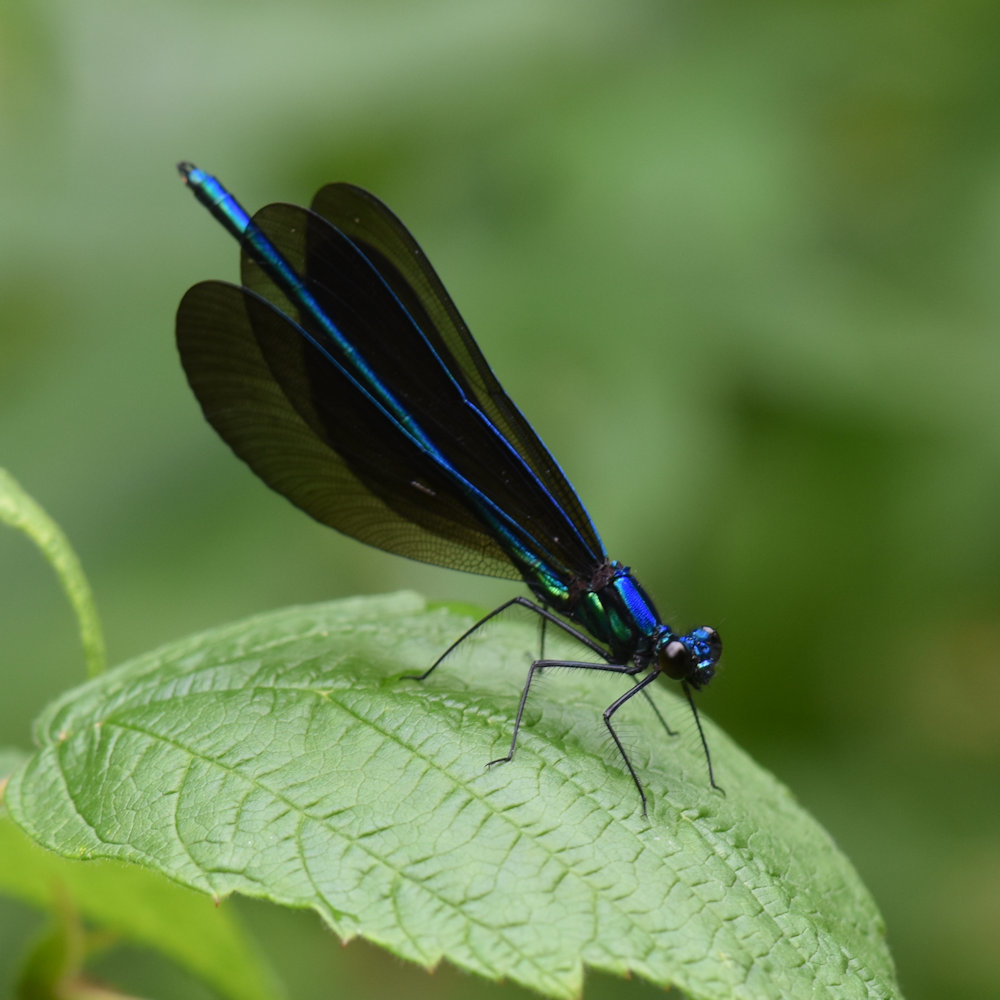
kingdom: Animalia
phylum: Arthropoda
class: Insecta
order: Odonata
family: Calopterygidae
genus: Calopteryx
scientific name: Calopteryx maculata
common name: Ebony jewelwing
